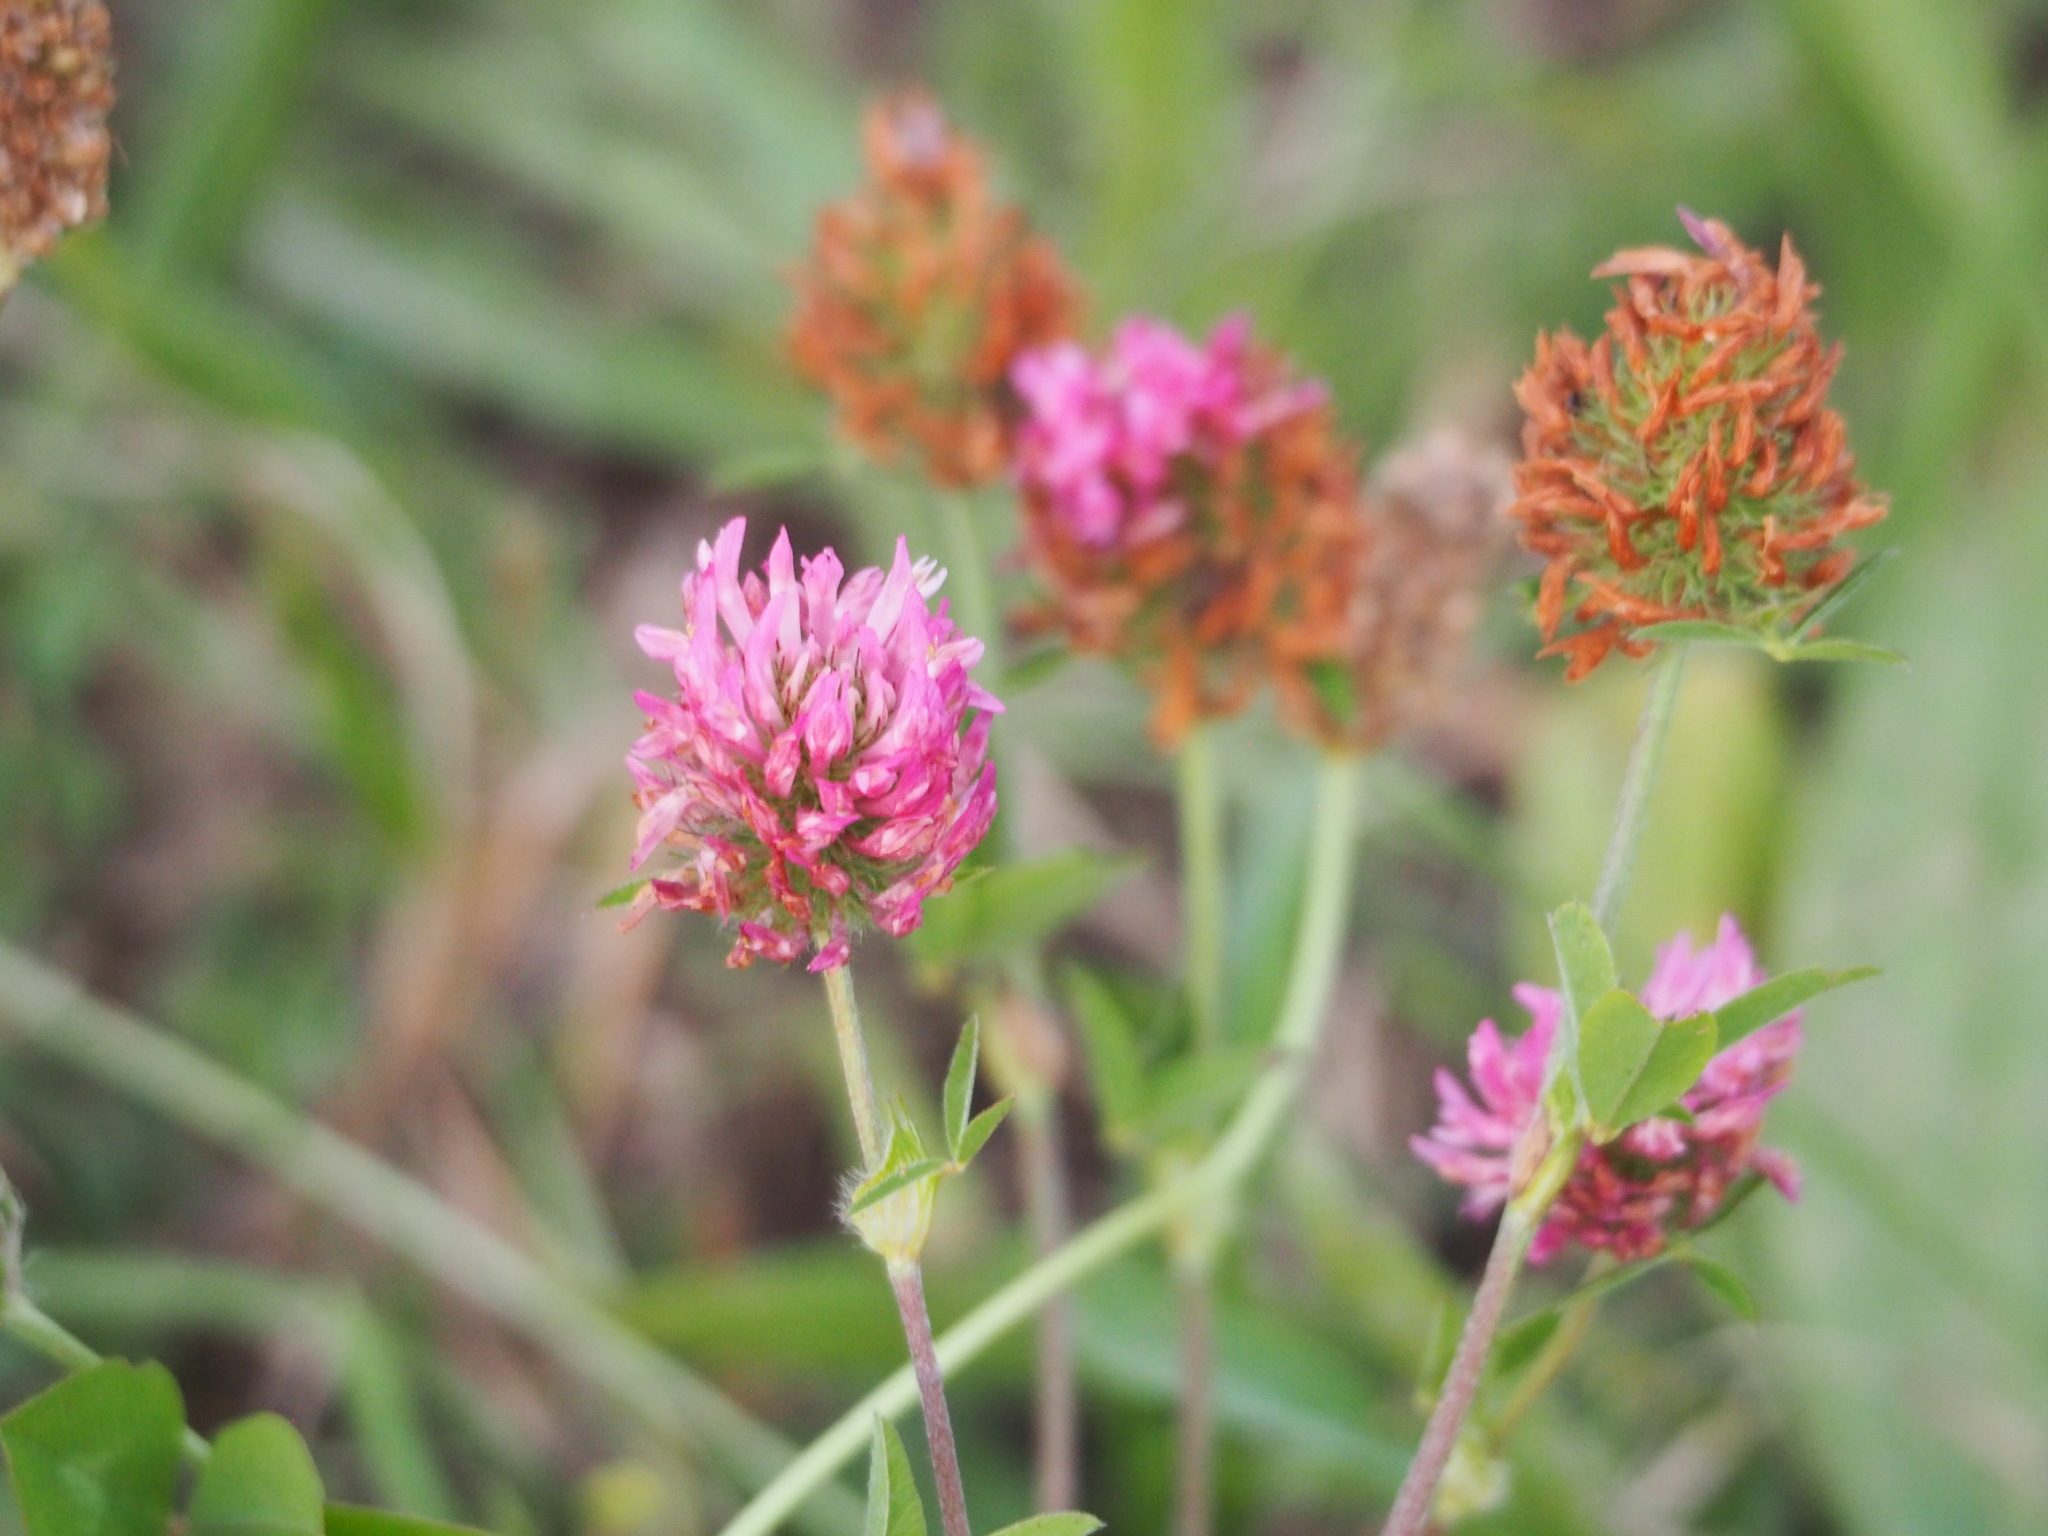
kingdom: Plantae
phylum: Tracheophyta
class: Magnoliopsida
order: Fabales
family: Fabaceae
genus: Trifolium
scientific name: Trifolium pratense
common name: Red clover
